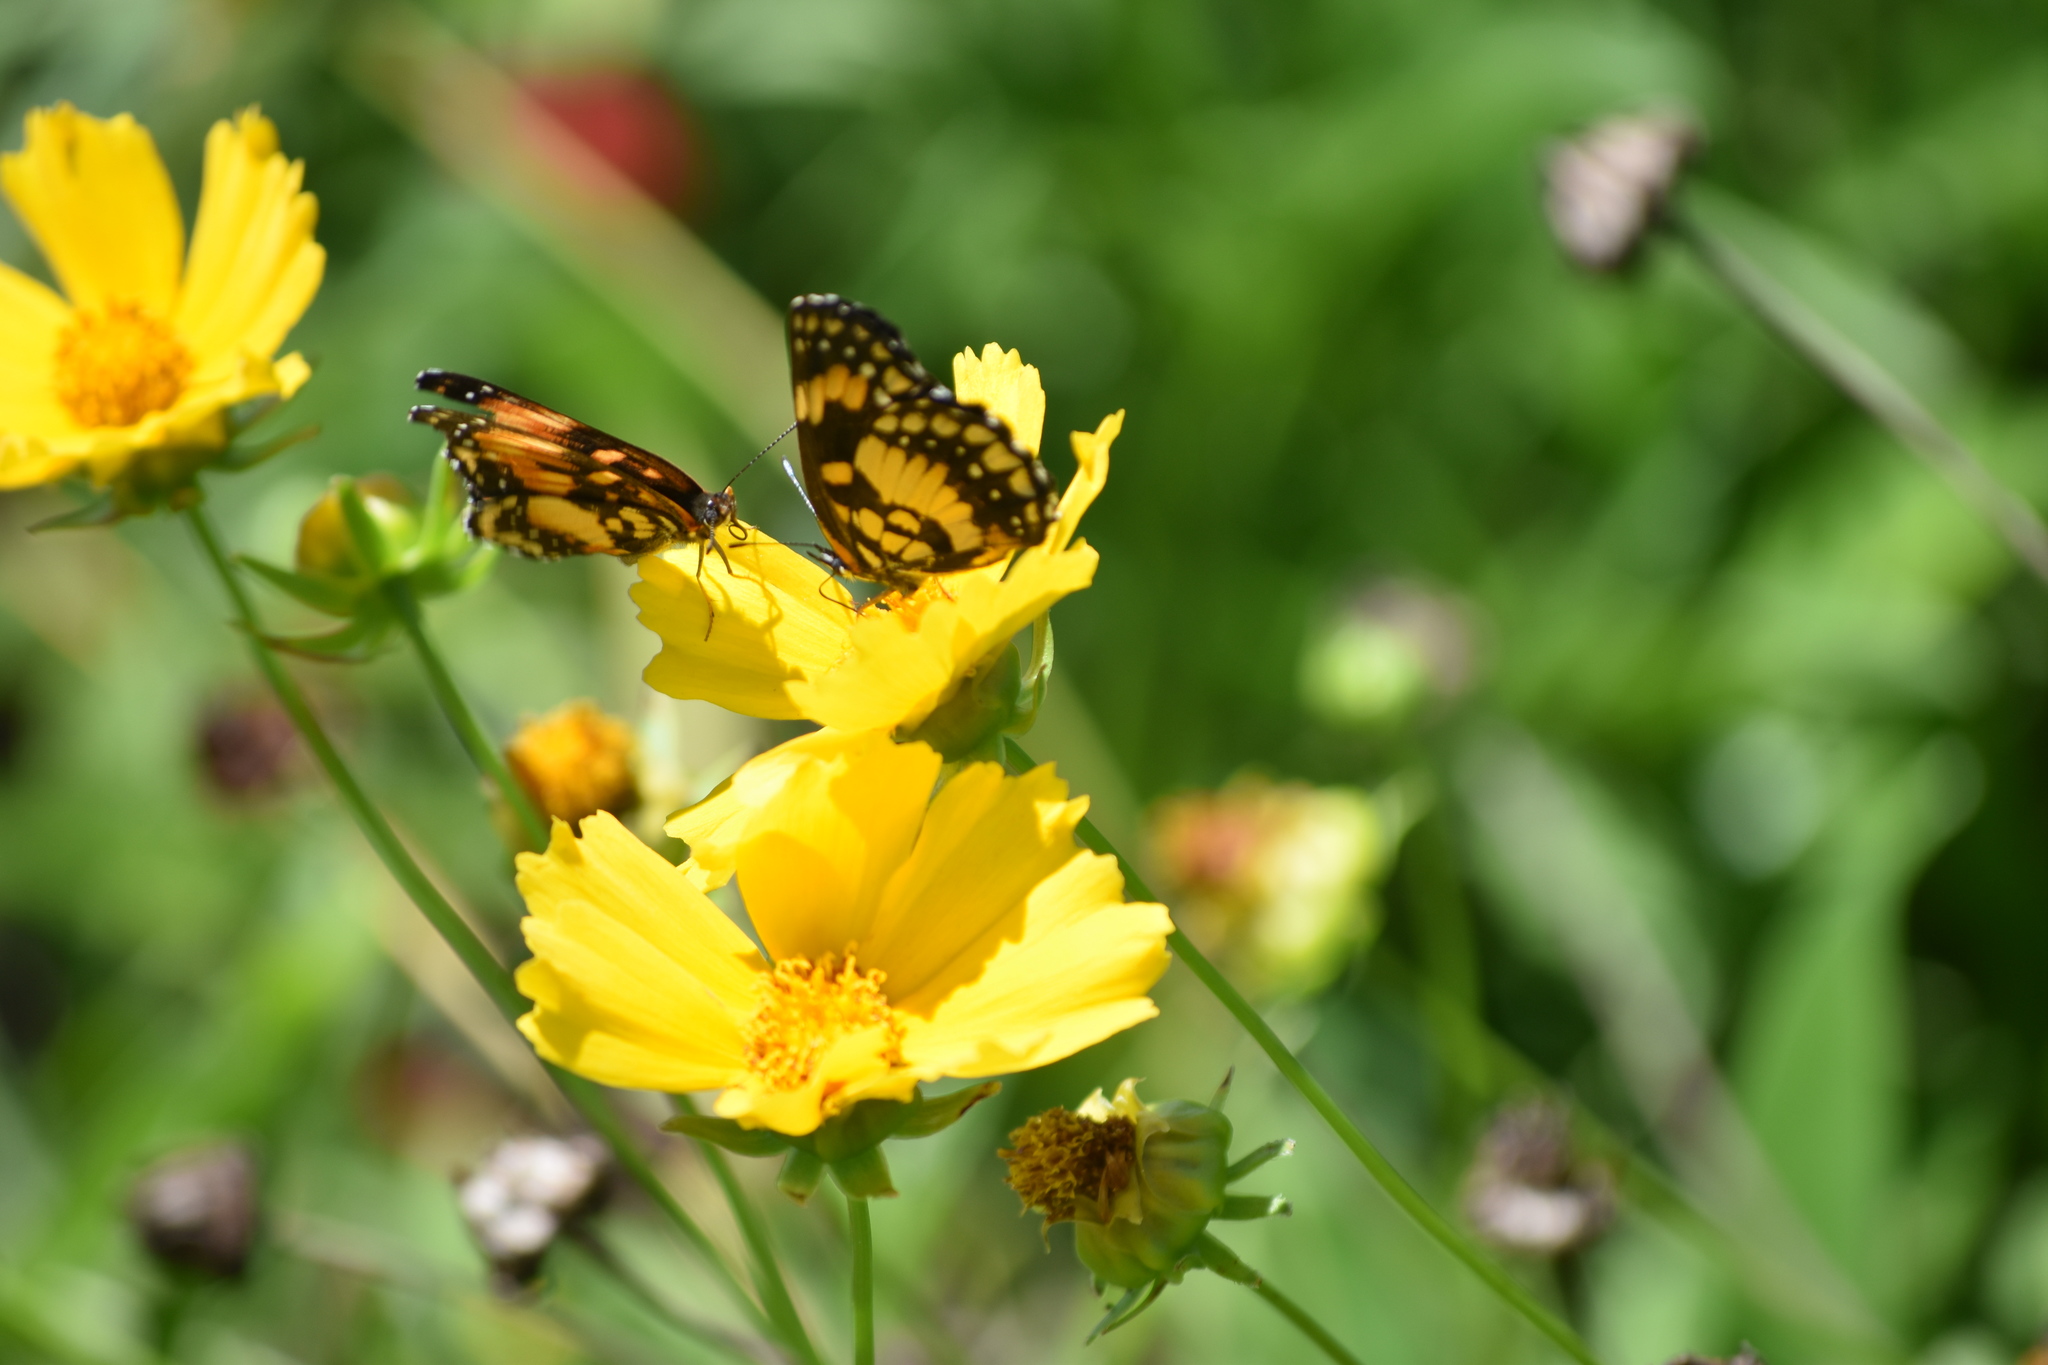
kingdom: Animalia
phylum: Arthropoda
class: Insecta
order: Lepidoptera
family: Nymphalidae
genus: Chlosyne
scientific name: Chlosyne lacinia
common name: Bordered patch
